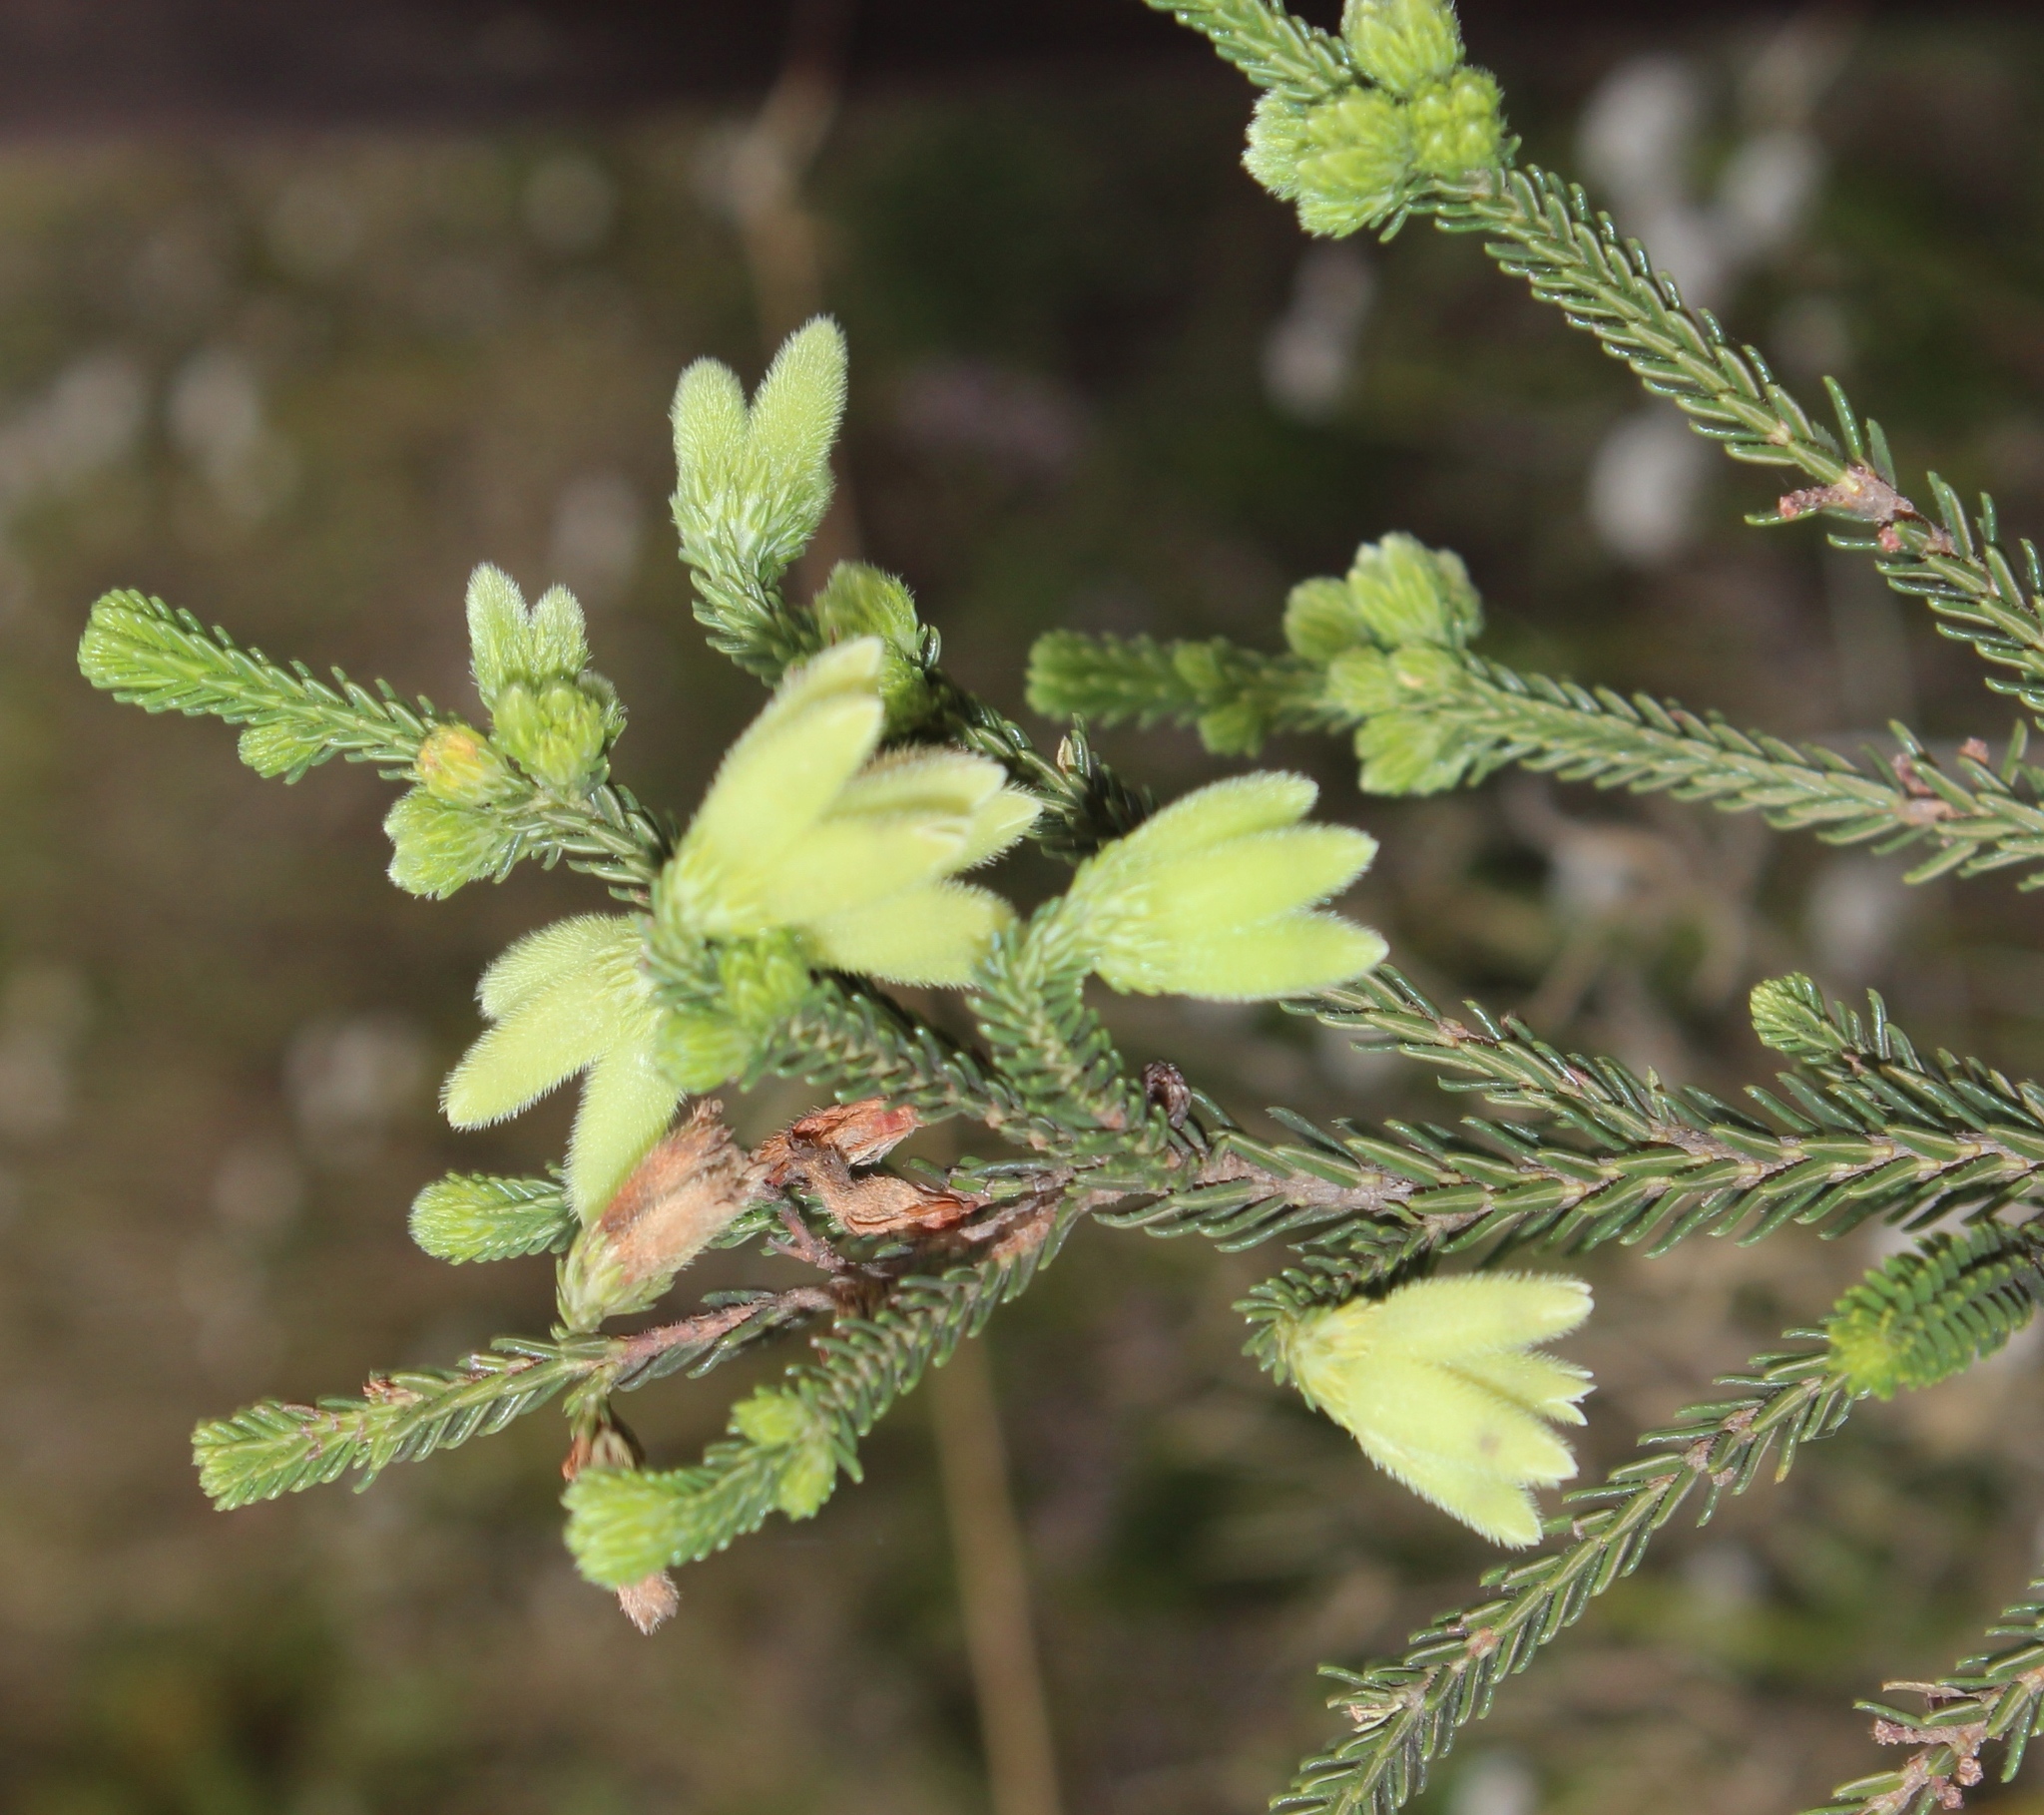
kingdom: Plantae
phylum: Tracheophyta
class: Magnoliopsida
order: Ericales
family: Ericaceae
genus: Erica
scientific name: Erica sparmannii
